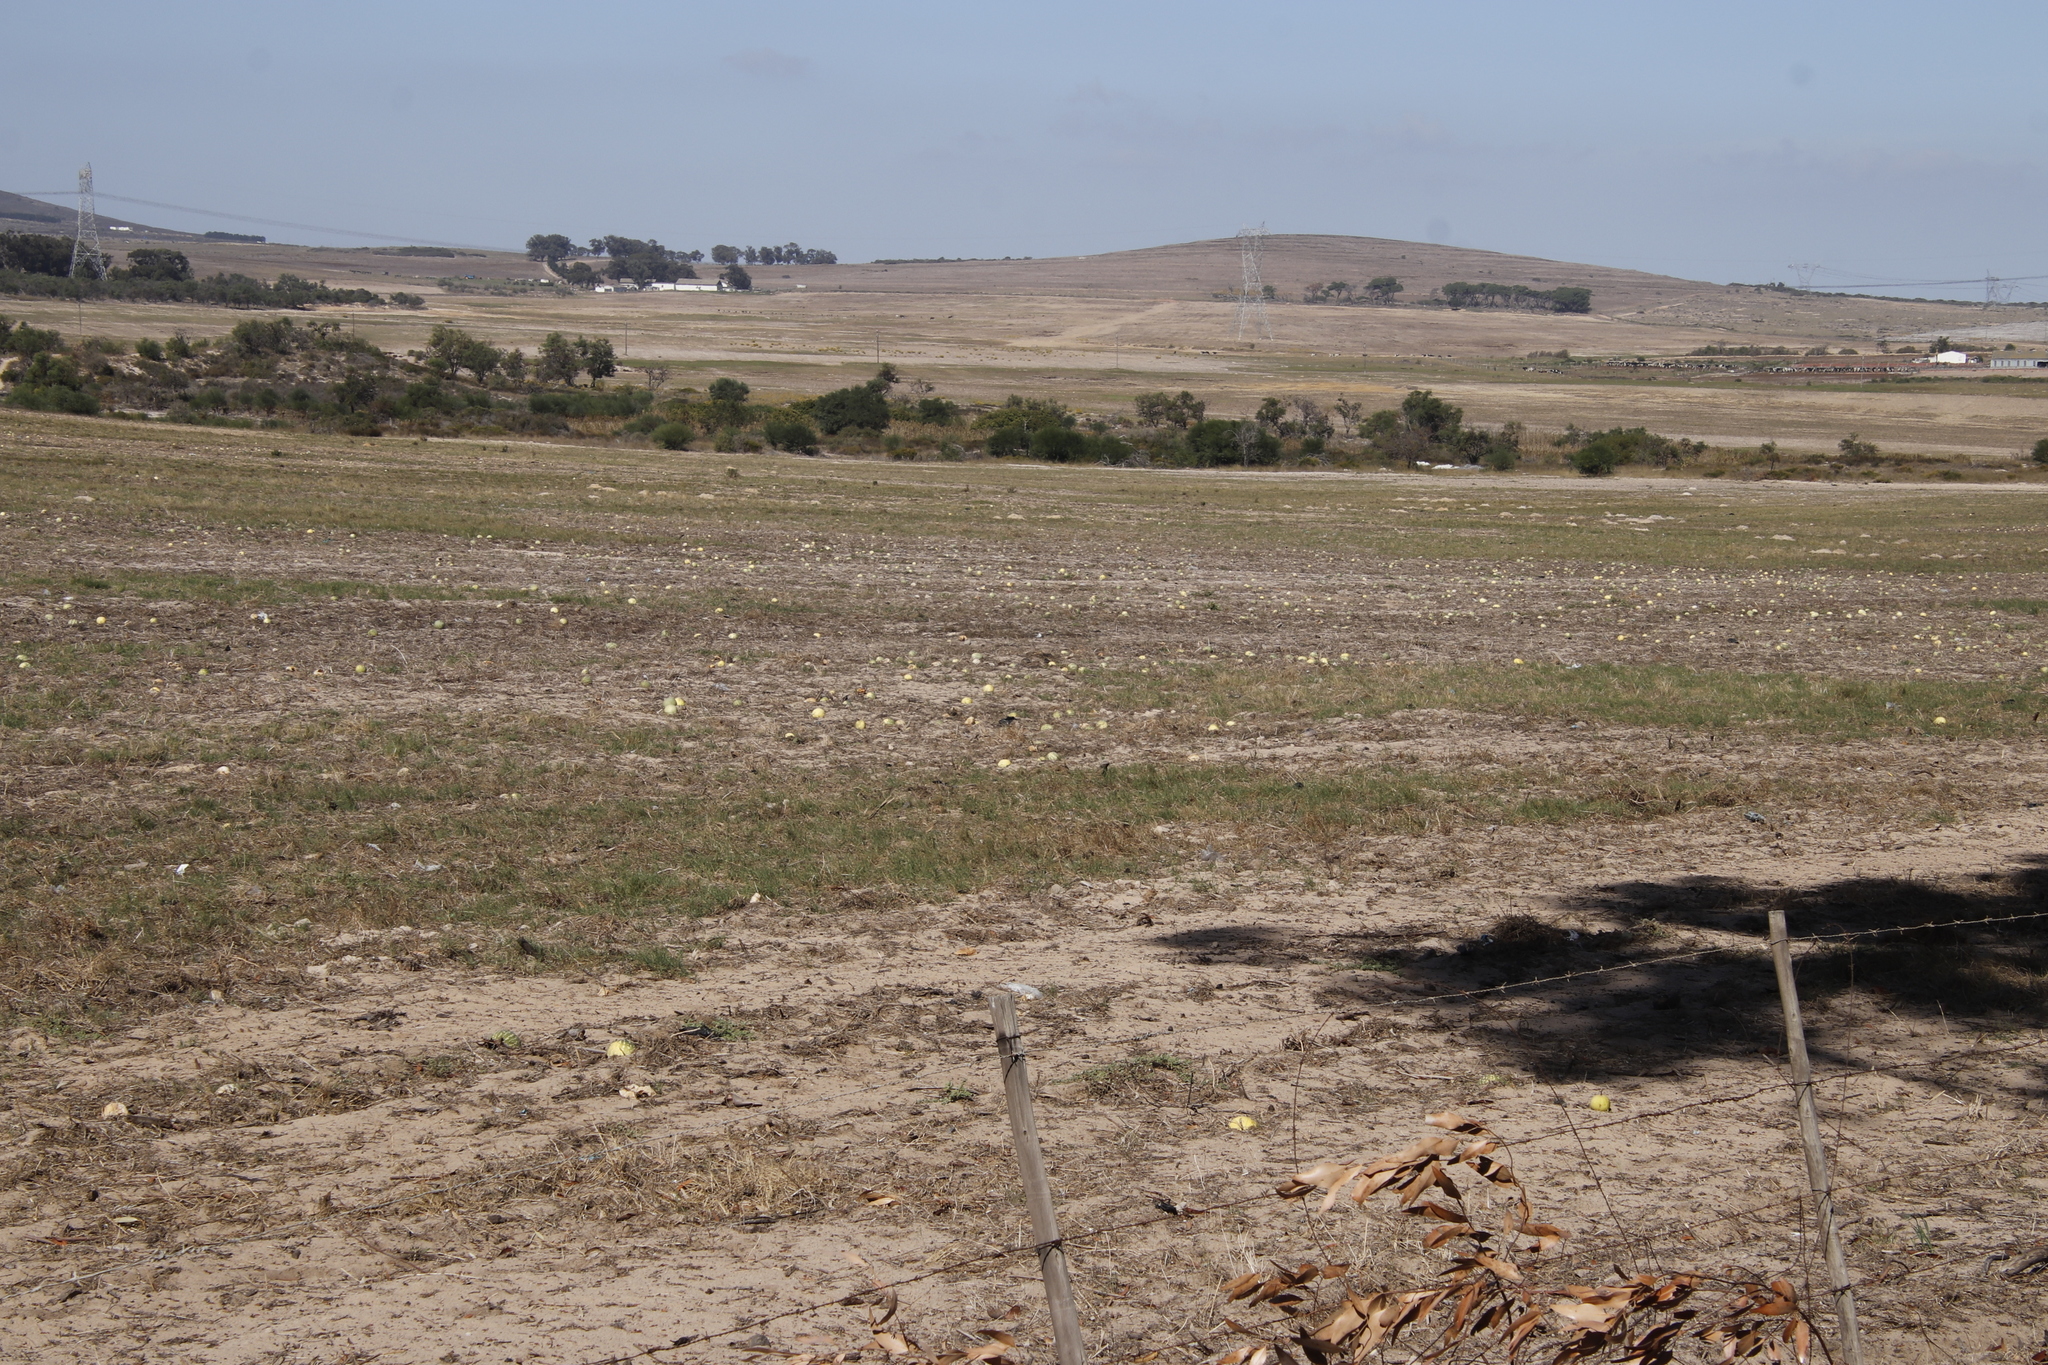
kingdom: Plantae
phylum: Tracheophyta
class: Magnoliopsida
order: Cucurbitales
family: Cucurbitaceae
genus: Citrullus
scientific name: Citrullus amarus
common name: Fodder-melon
